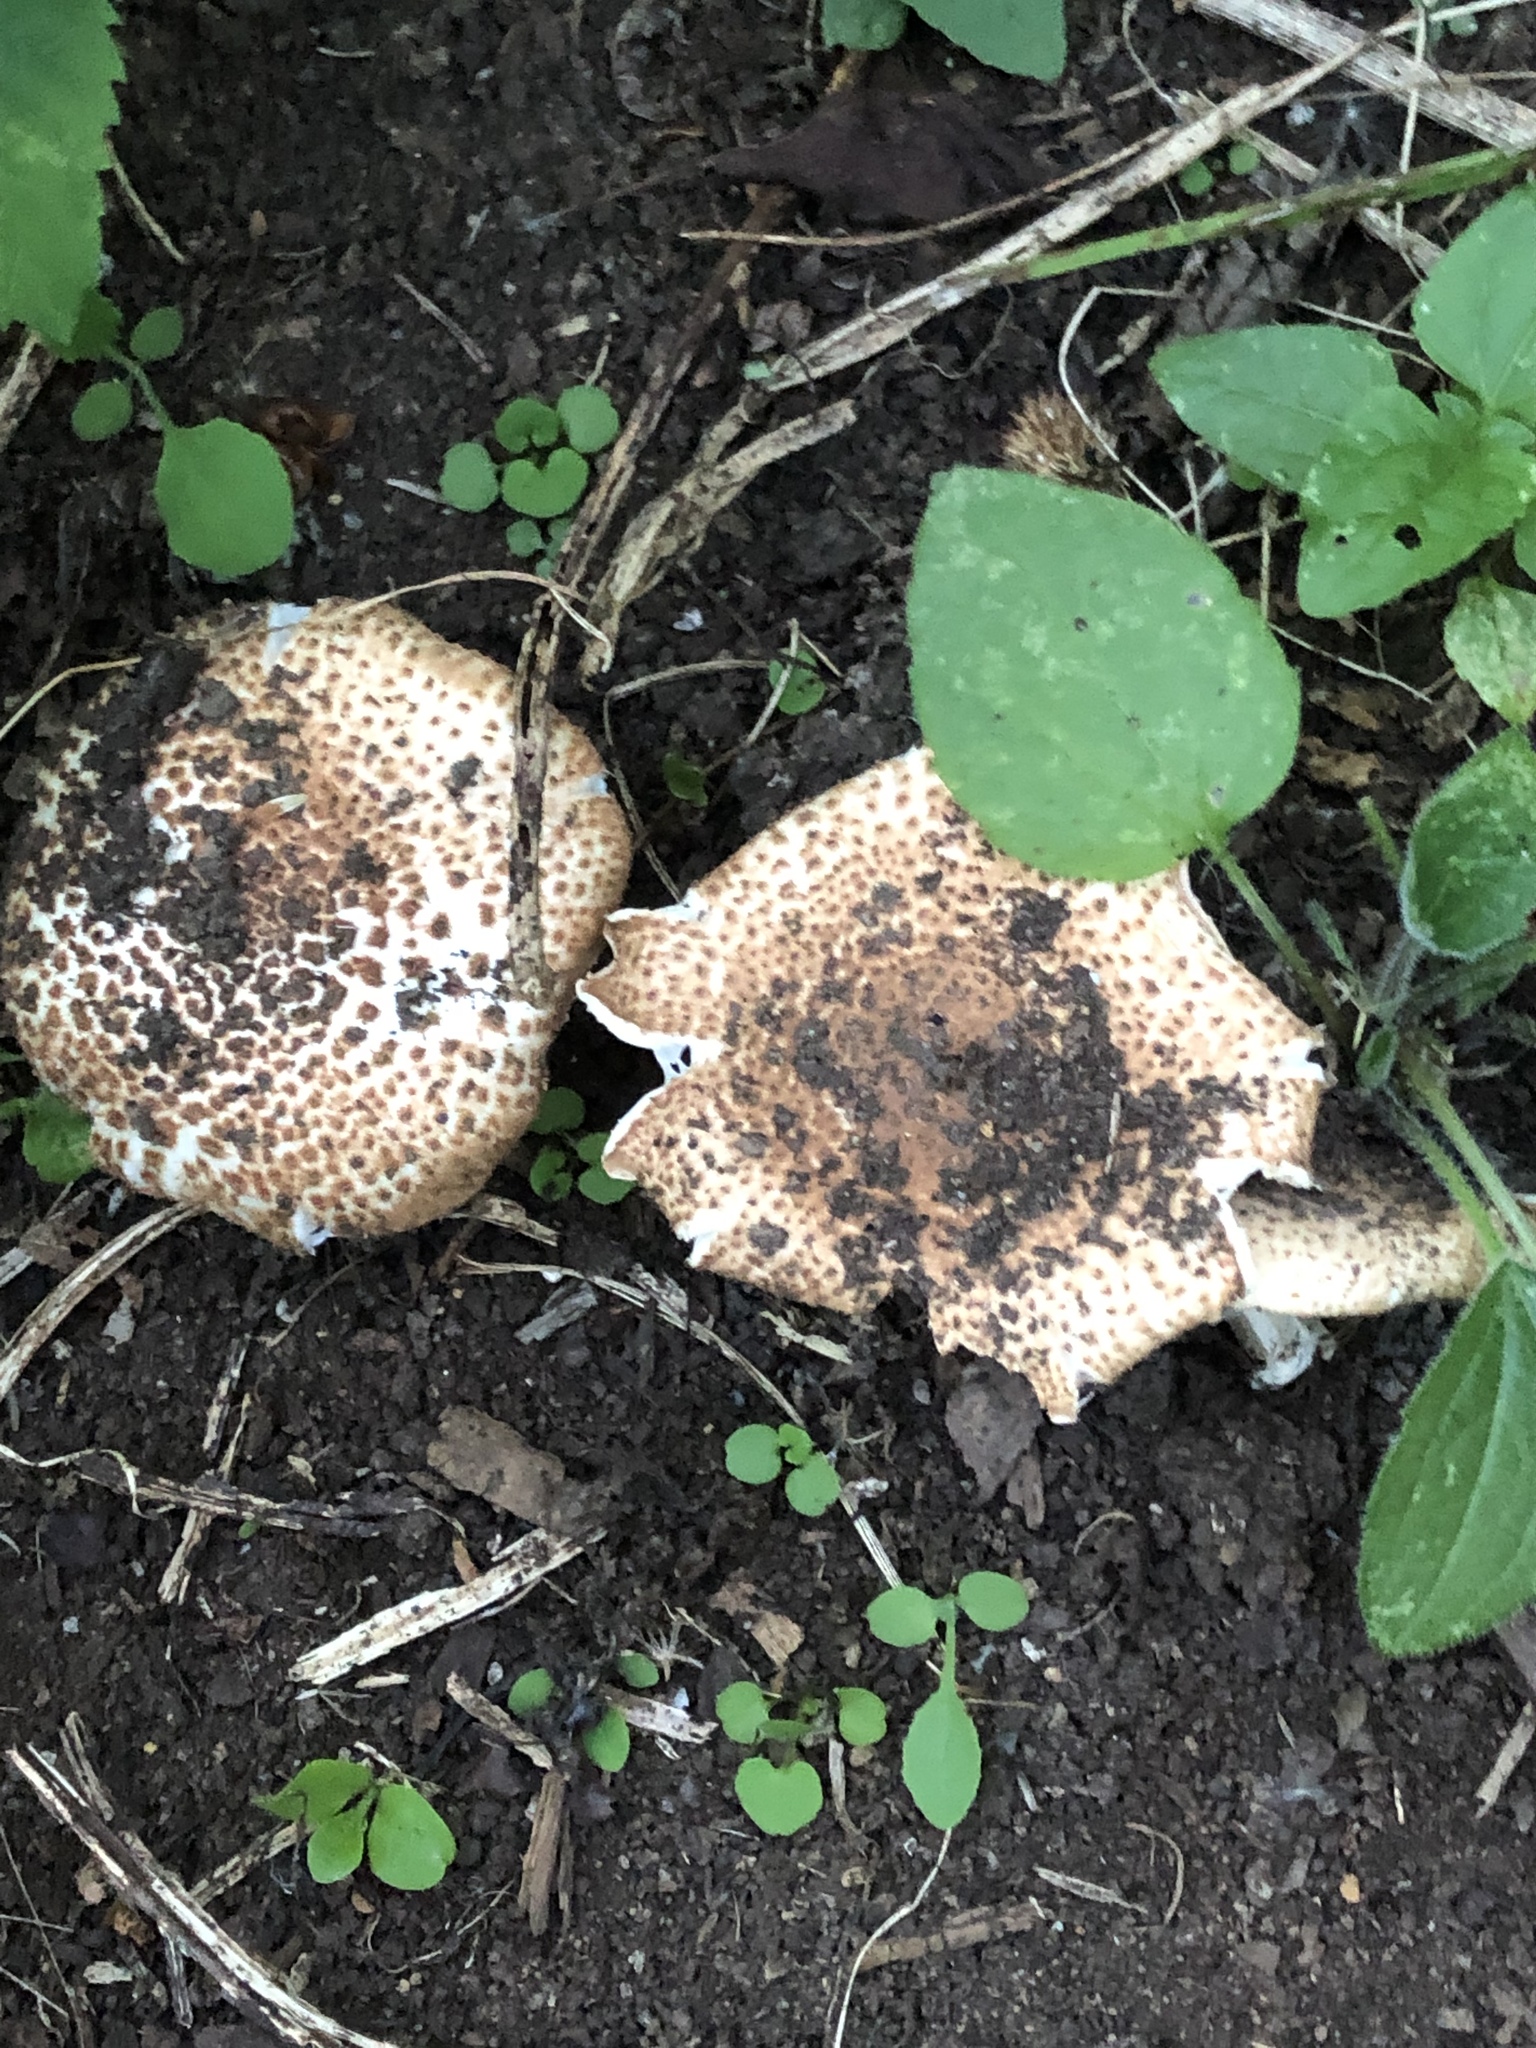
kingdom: Fungi
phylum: Basidiomycota
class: Agaricomycetes
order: Agaricales
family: Agaricaceae
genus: Echinoderma
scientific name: Echinoderma asperum
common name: Freckled dapperling
